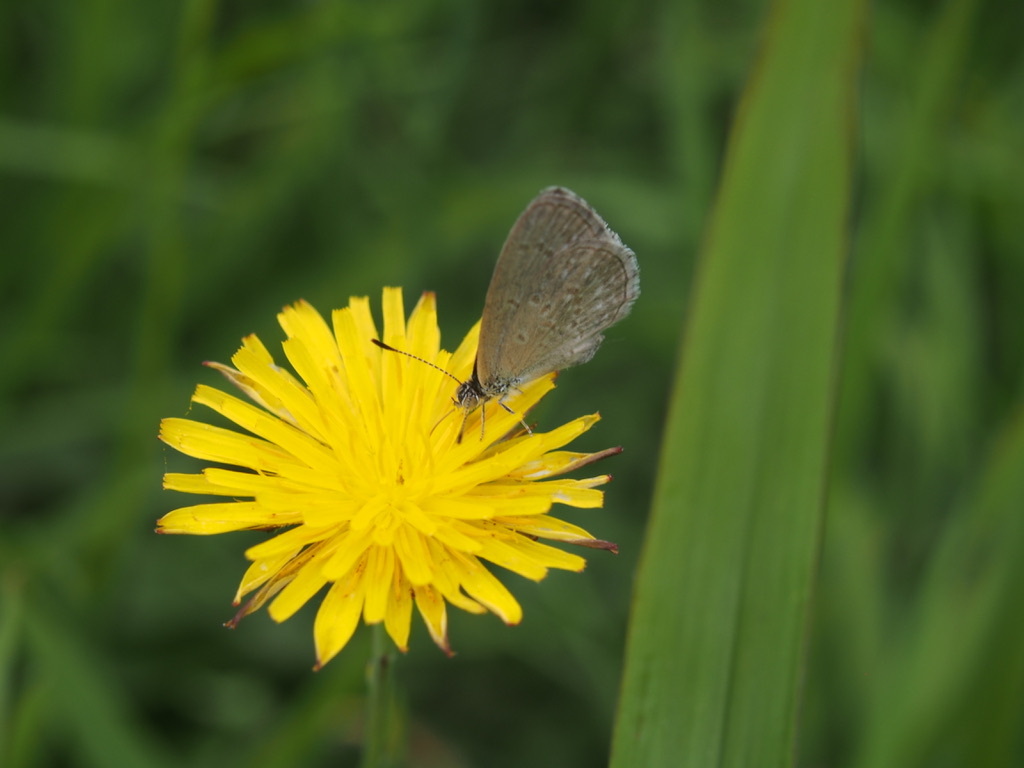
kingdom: Animalia
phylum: Arthropoda
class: Insecta
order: Lepidoptera
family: Lycaenidae
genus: Zizina
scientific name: Zizina otis
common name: Lesser grass blue
